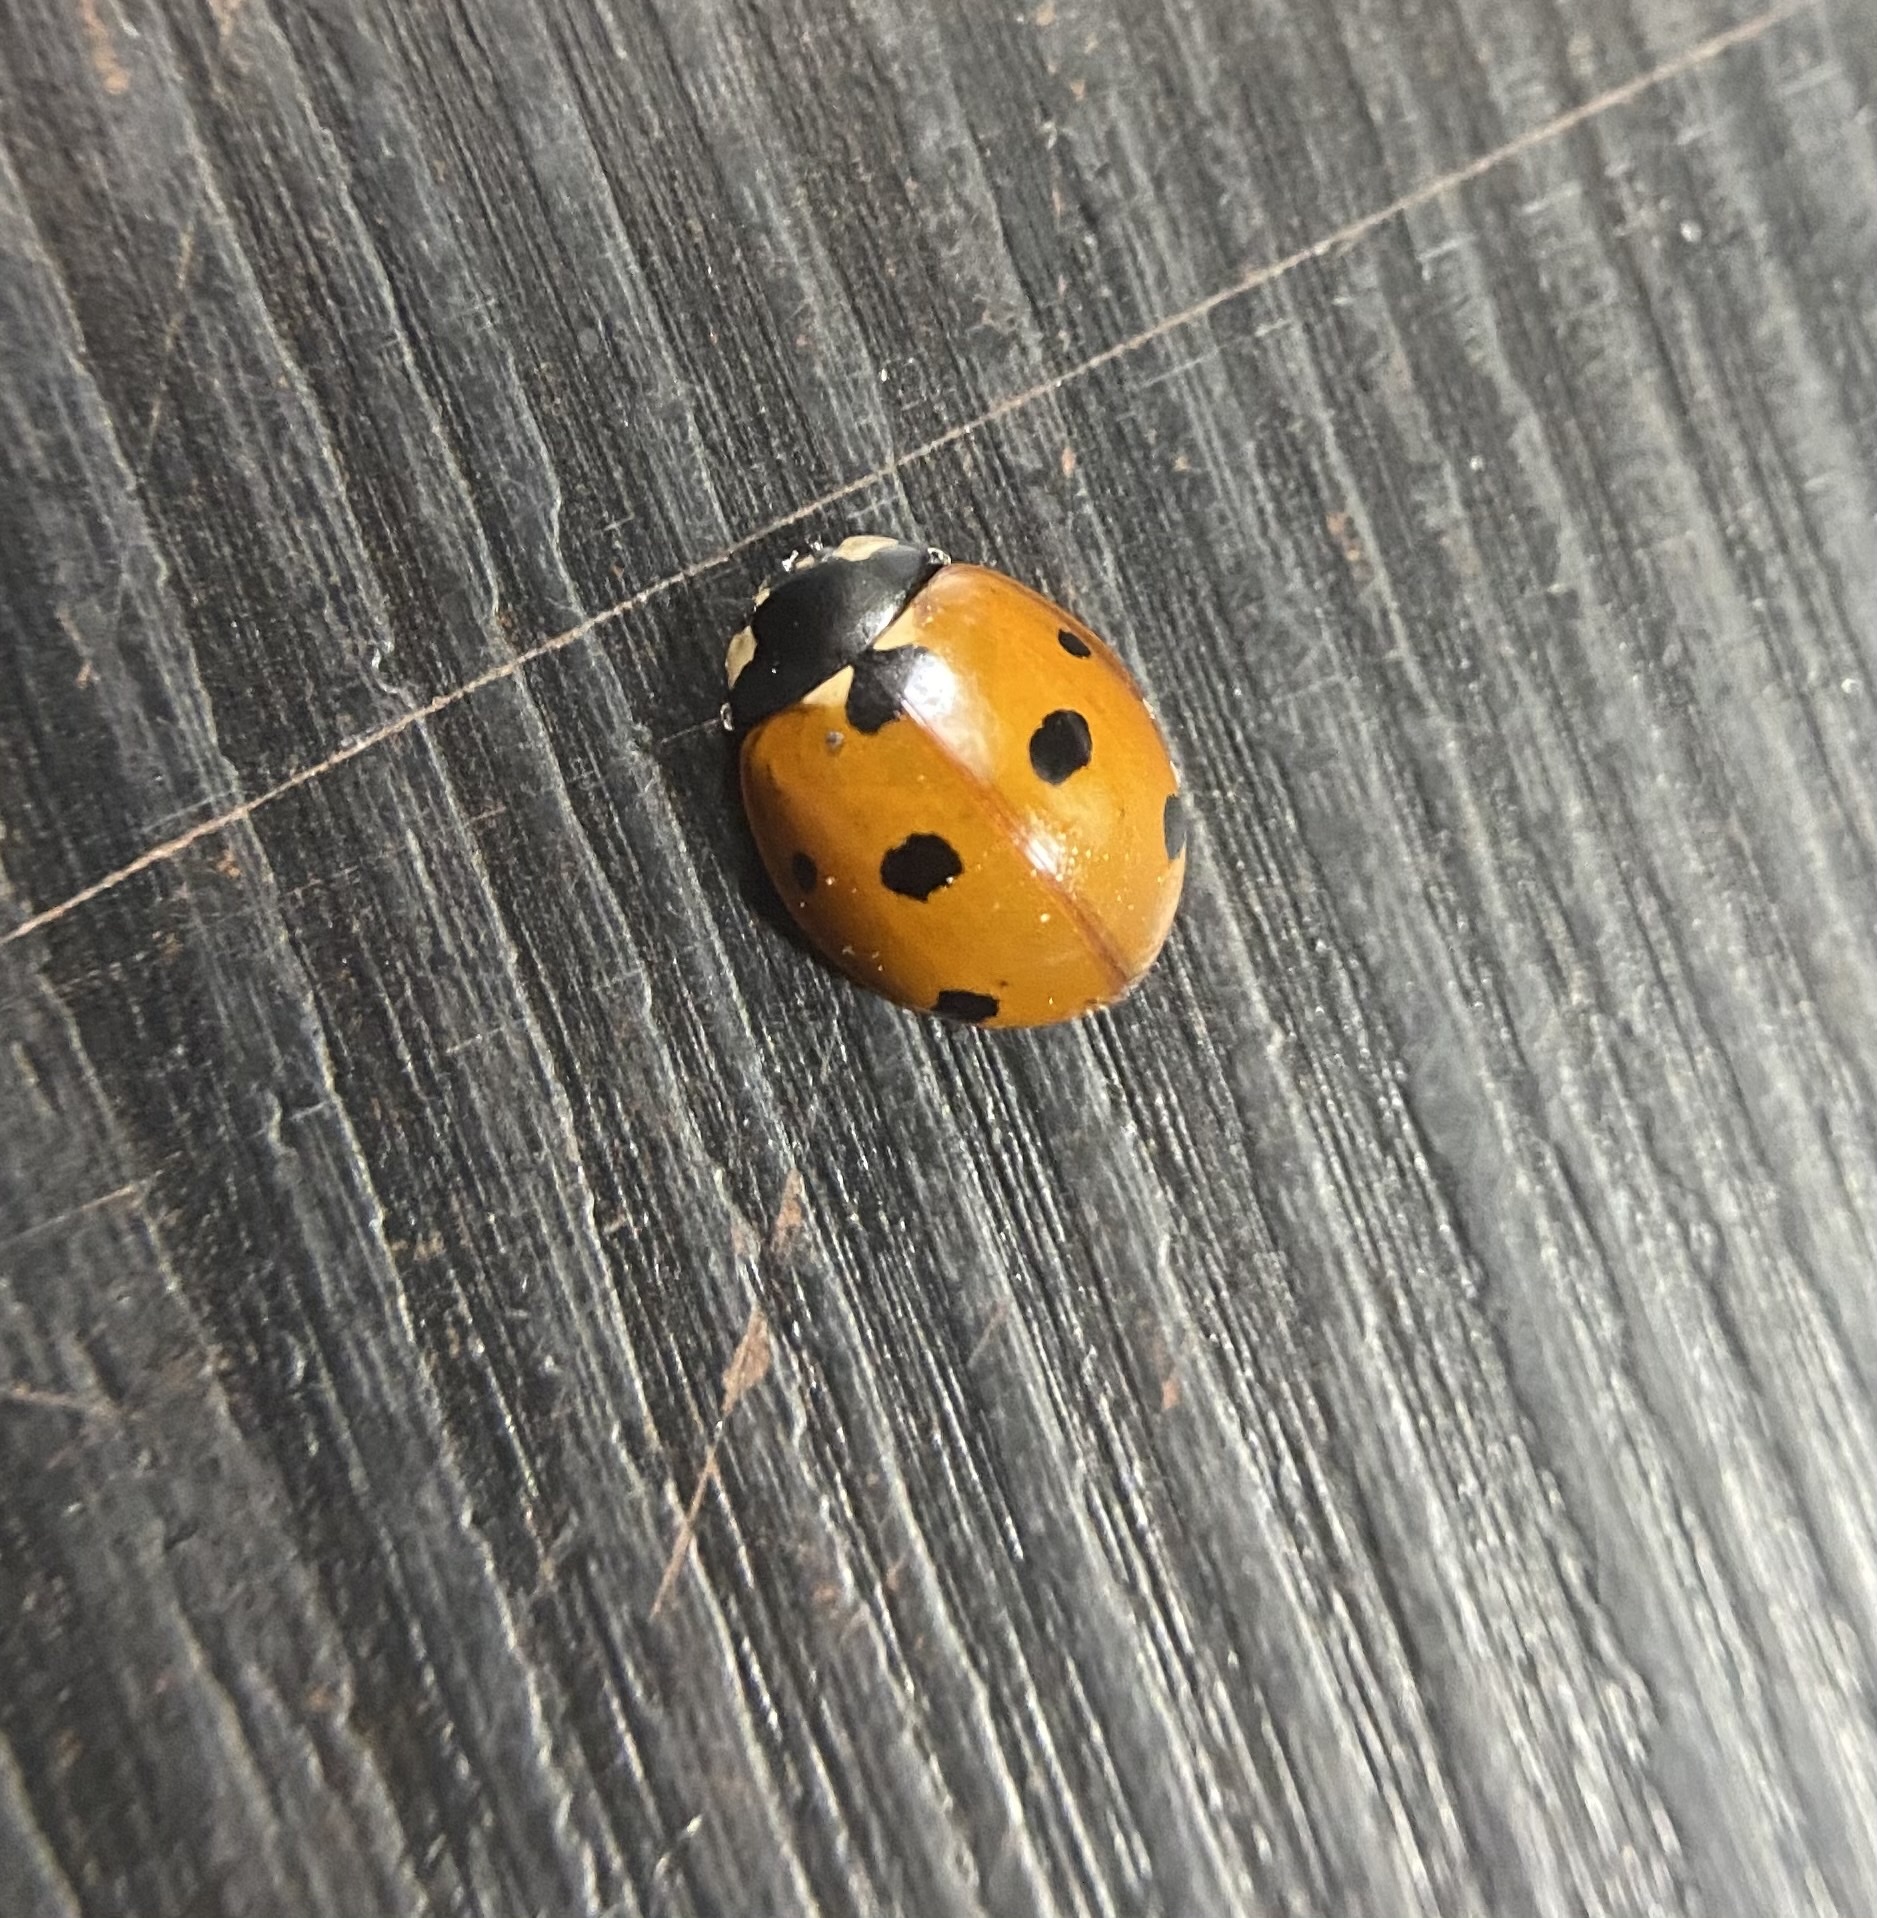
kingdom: Animalia
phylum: Arthropoda
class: Insecta
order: Coleoptera
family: Coccinellidae
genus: Coccinella
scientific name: Coccinella septempunctata
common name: Sevenspotted lady beetle
